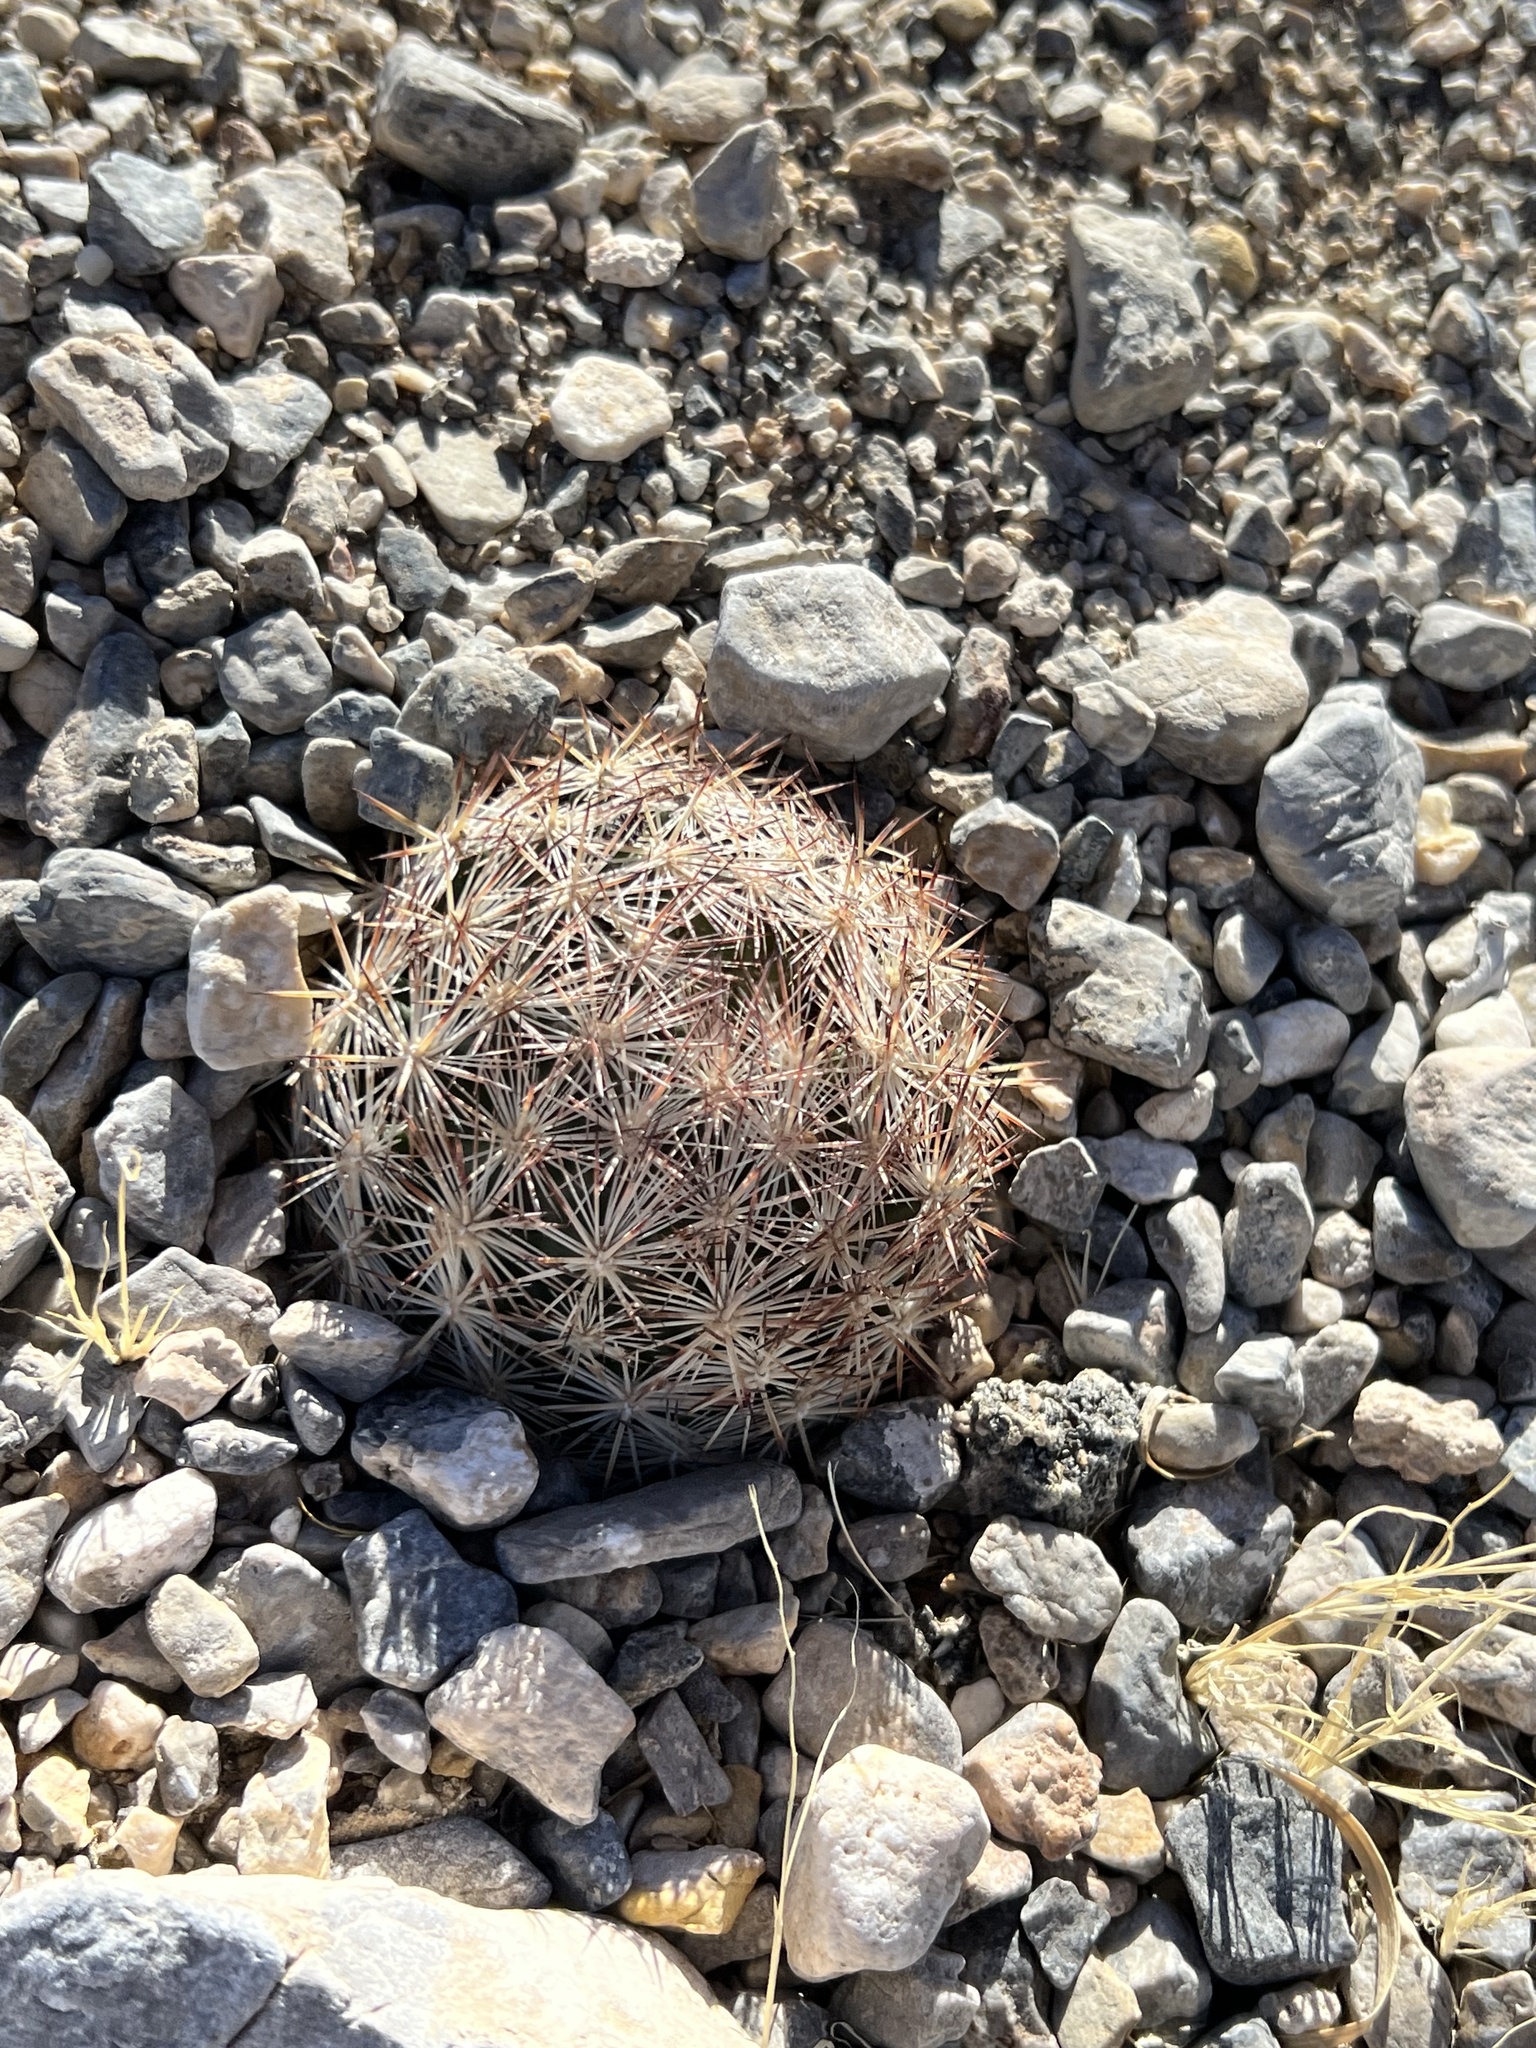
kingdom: Plantae
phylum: Tracheophyta
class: Magnoliopsida
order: Caryophyllales
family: Cactaceae
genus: Pelecyphora
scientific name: Pelecyphora dasyacantha
